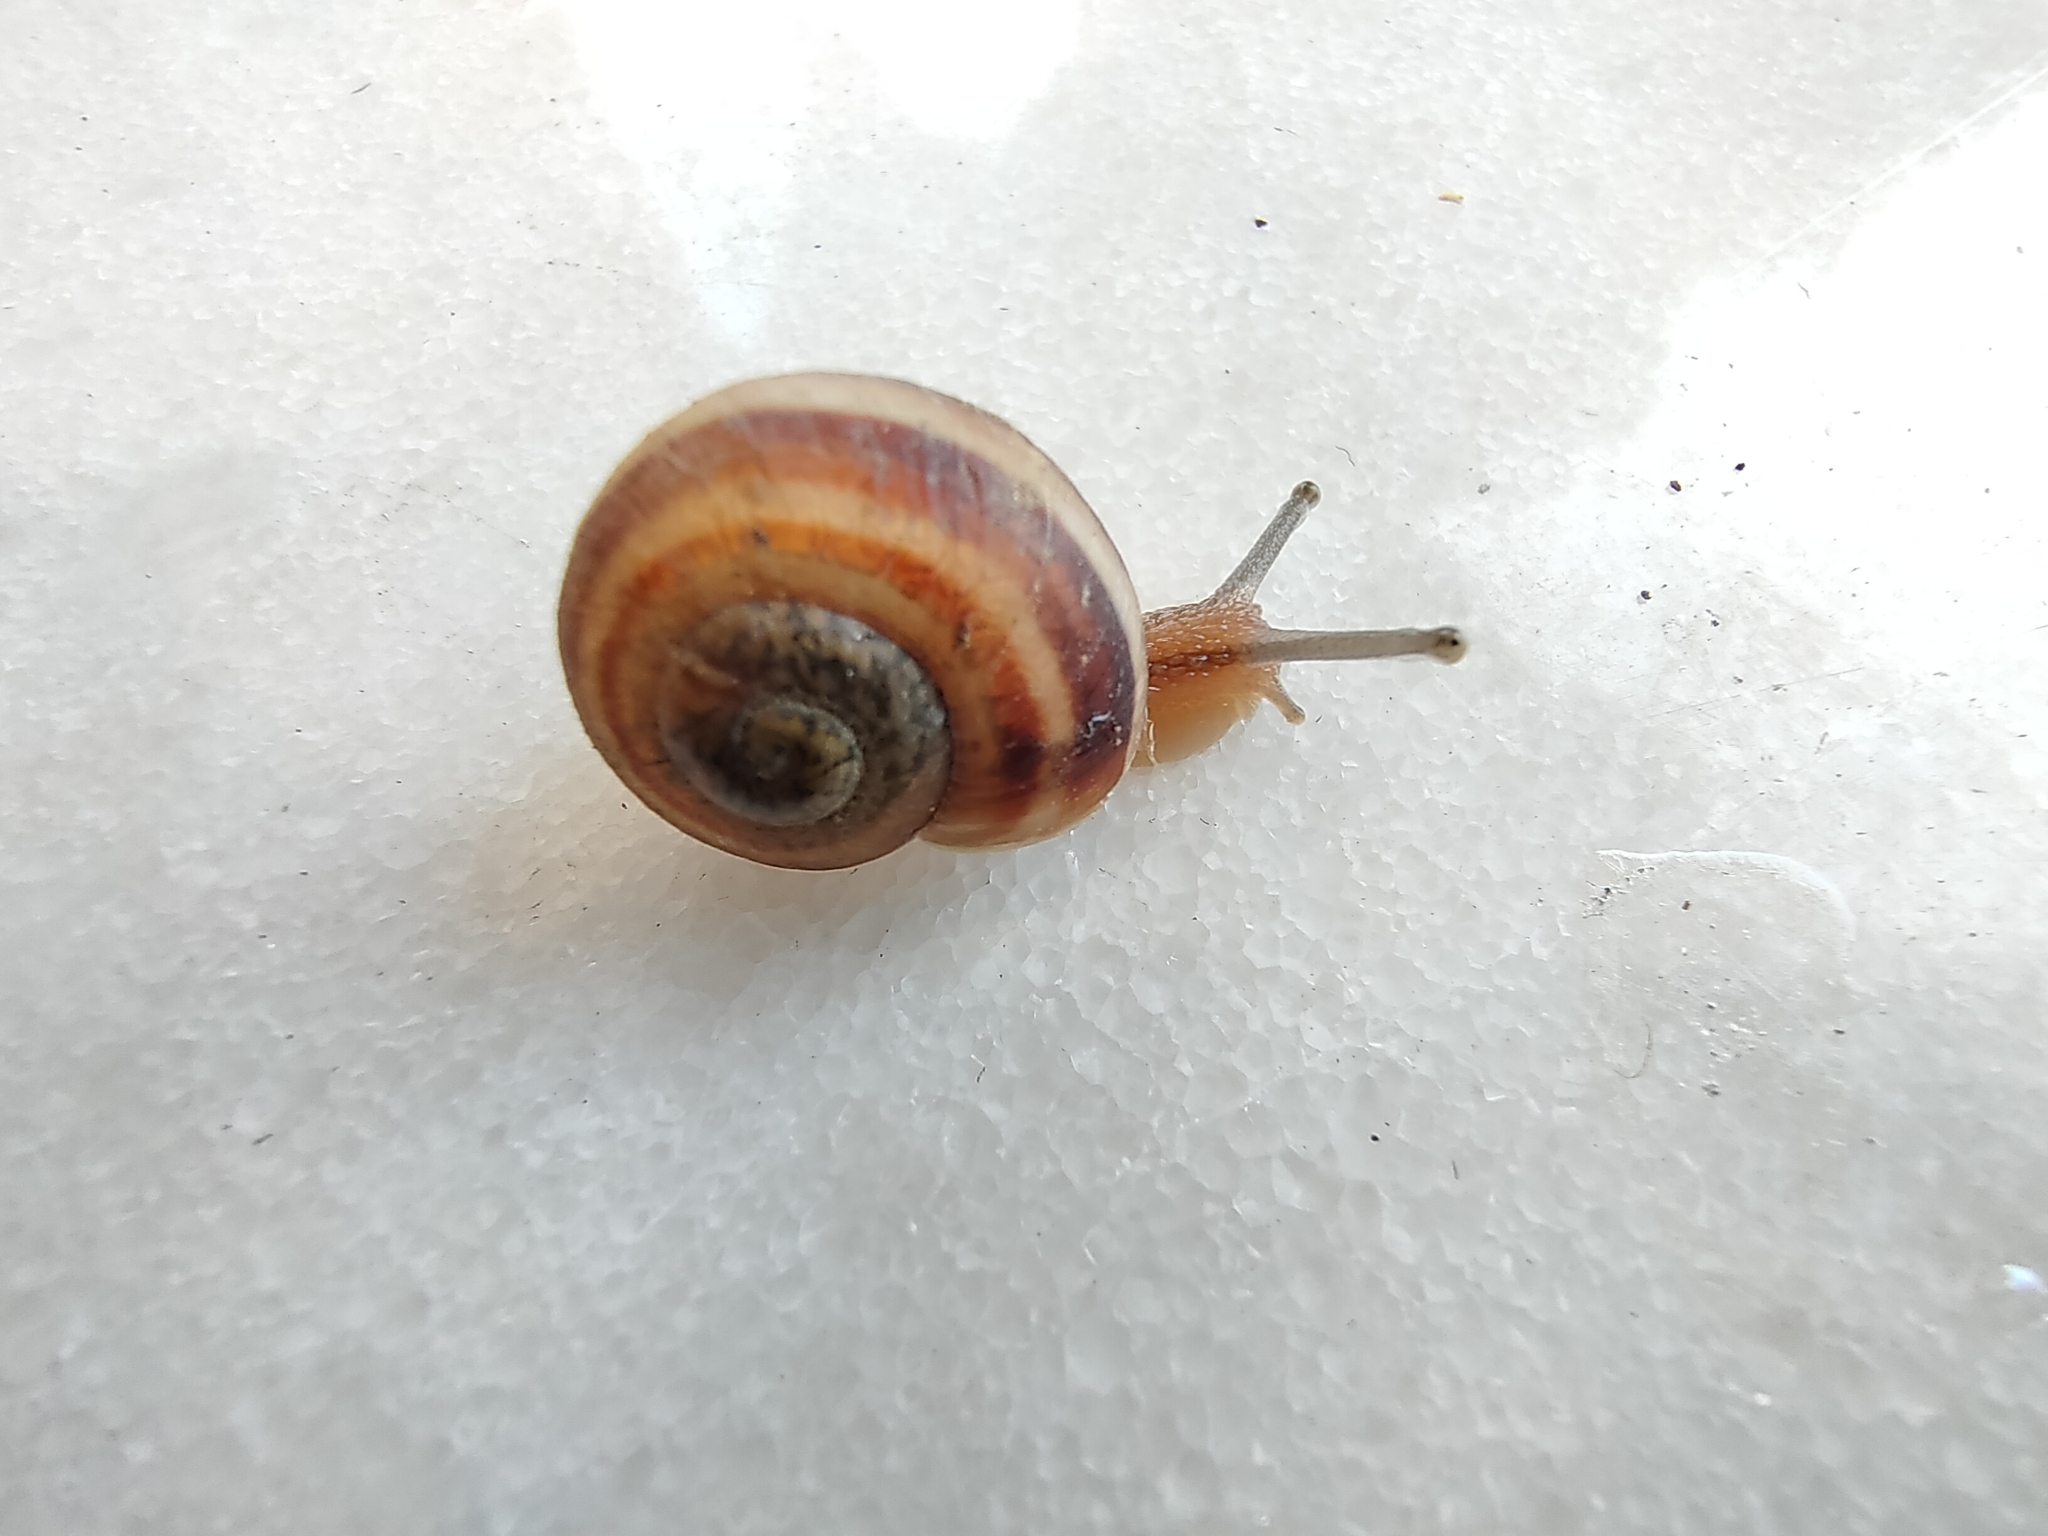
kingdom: Animalia
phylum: Mollusca
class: Gastropoda
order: Stylommatophora
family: Helicidae
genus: Eobania
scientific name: Eobania vermiculata
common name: Chocolateband snail
